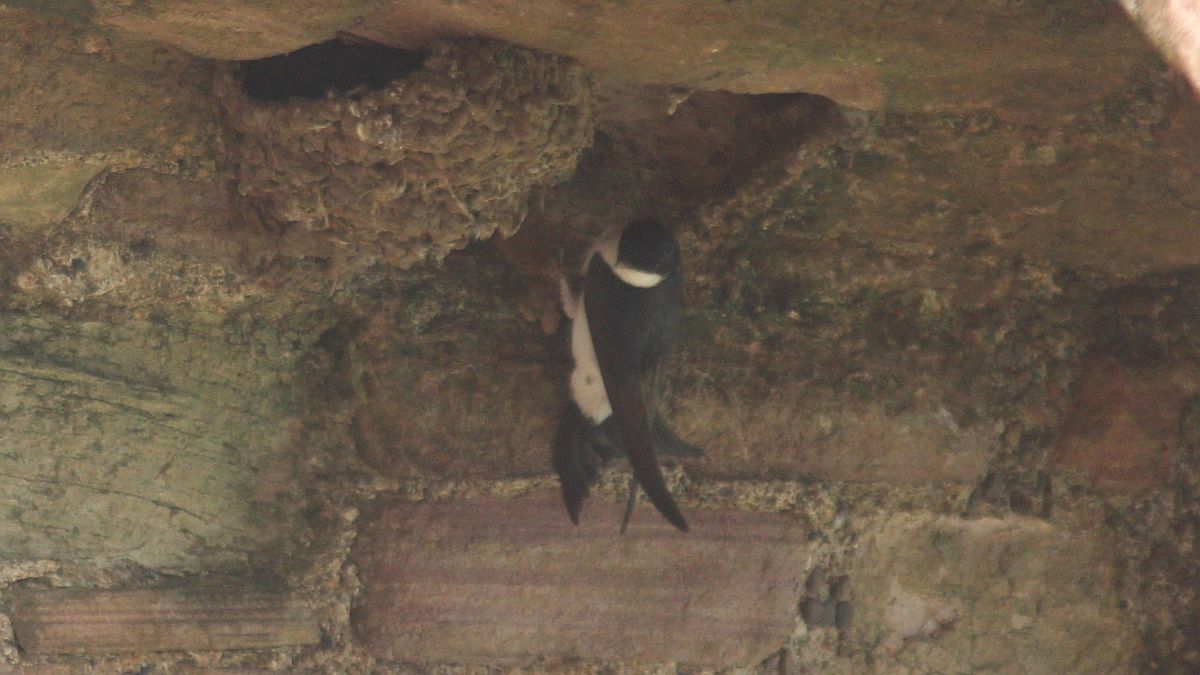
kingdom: Animalia
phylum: Chordata
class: Aves
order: Passeriformes
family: Hirundinidae
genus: Delichon
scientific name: Delichon urbicum
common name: Common house martin
